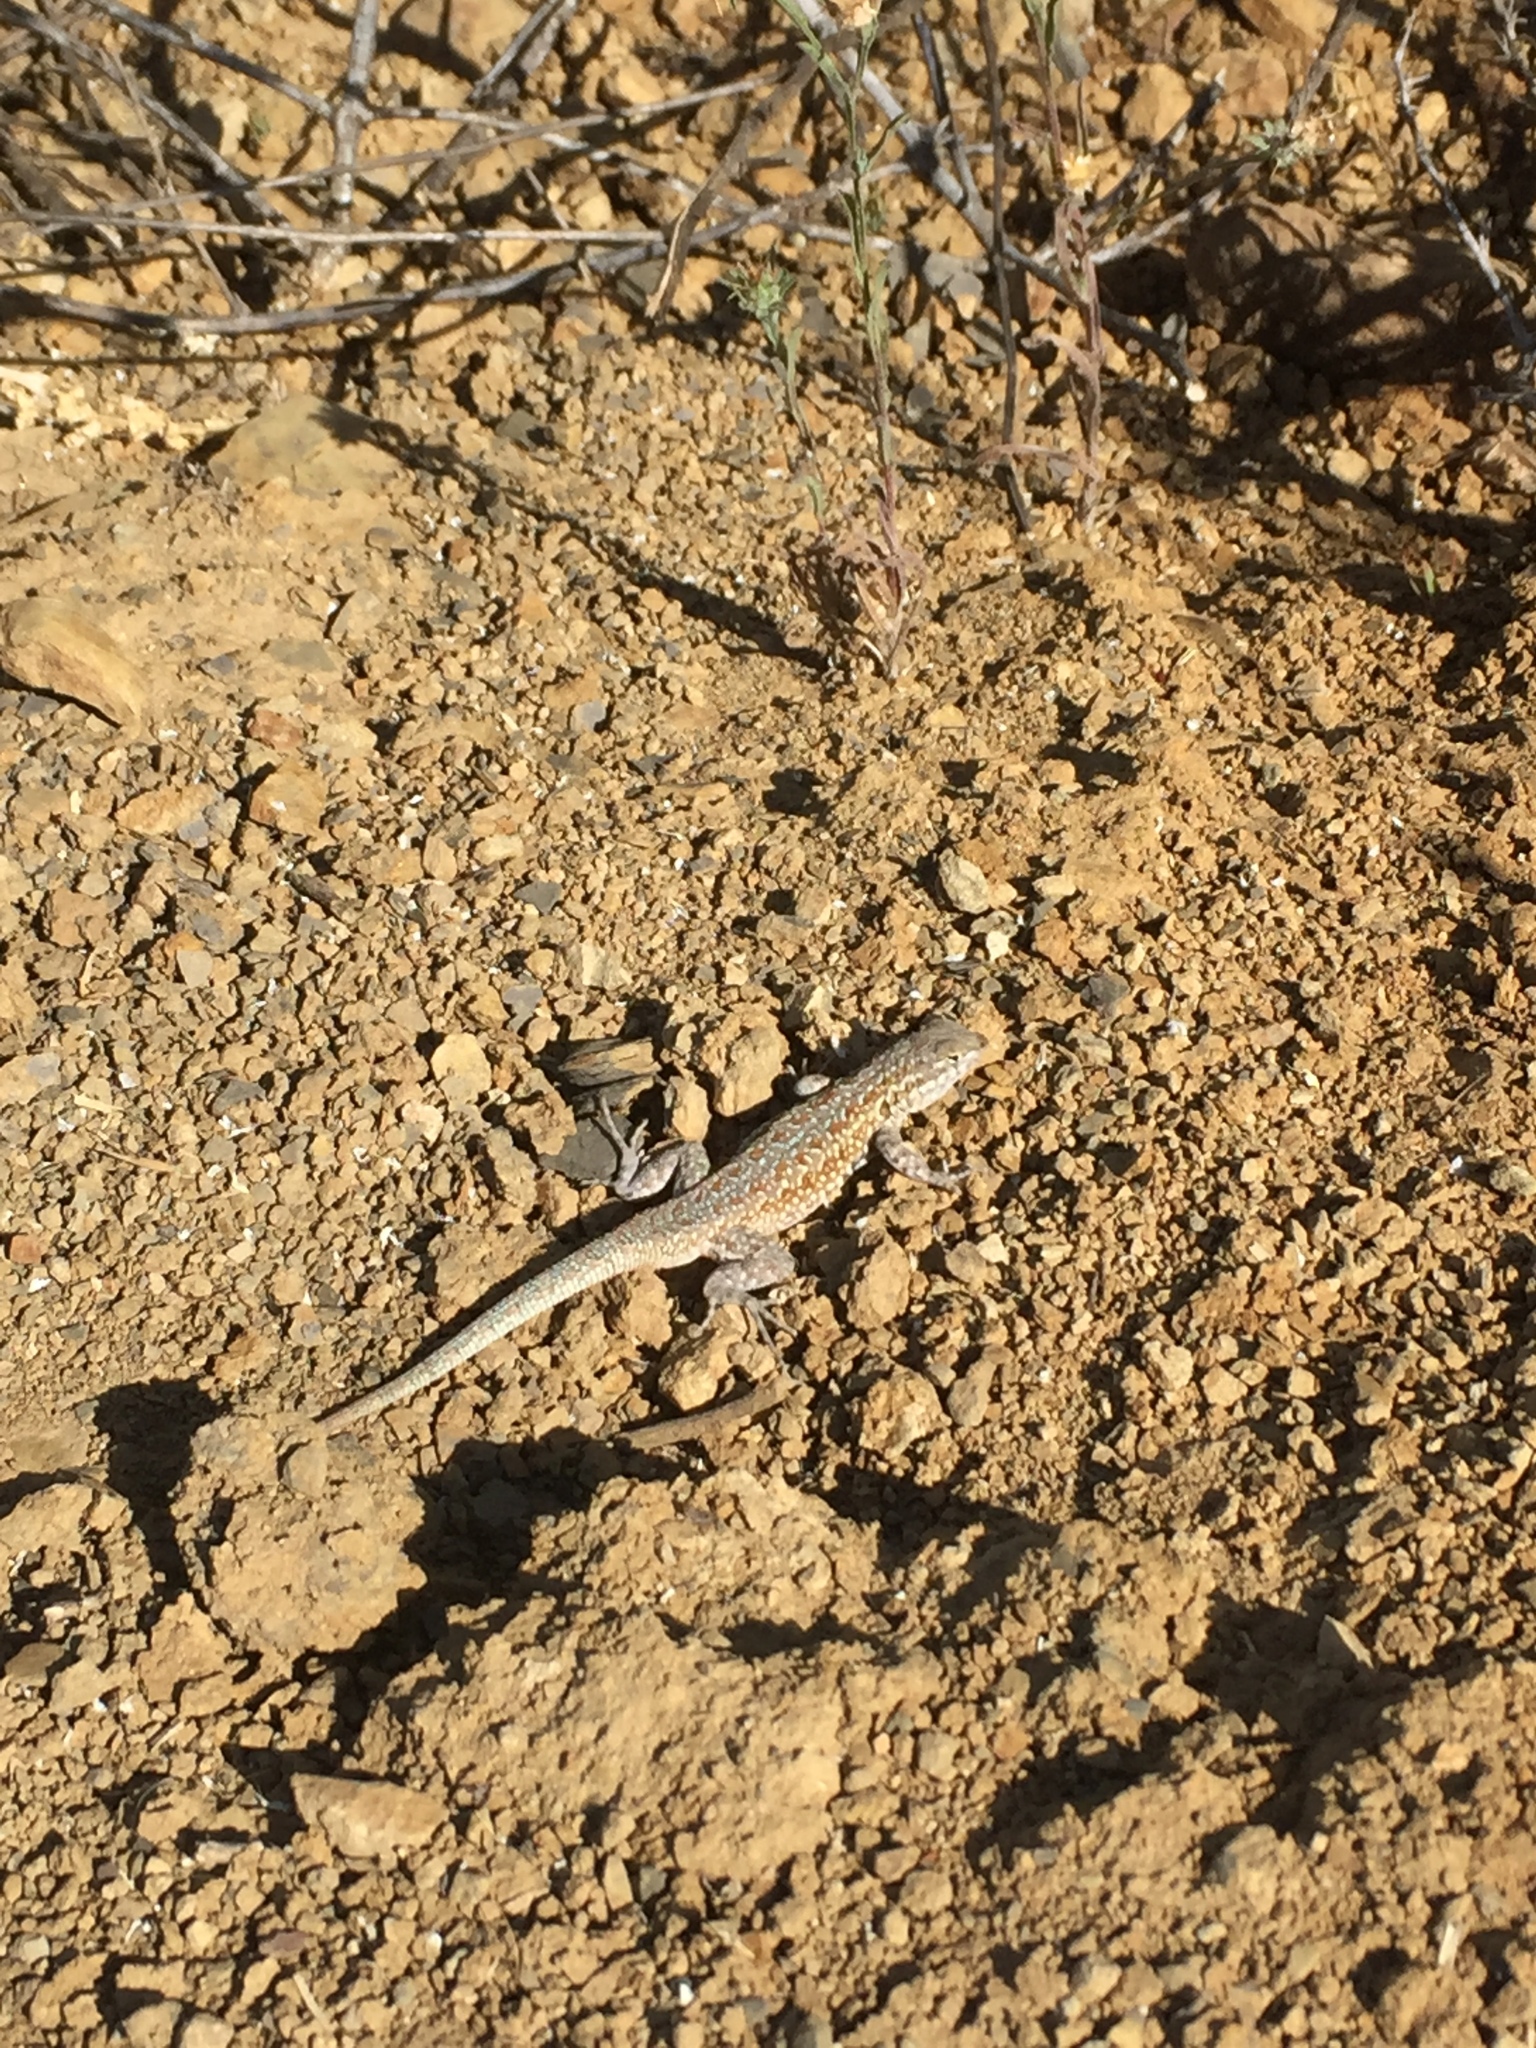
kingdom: Animalia
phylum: Chordata
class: Squamata
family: Phrynosomatidae
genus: Uta
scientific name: Uta stansburiana
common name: Side-blotched lizard
